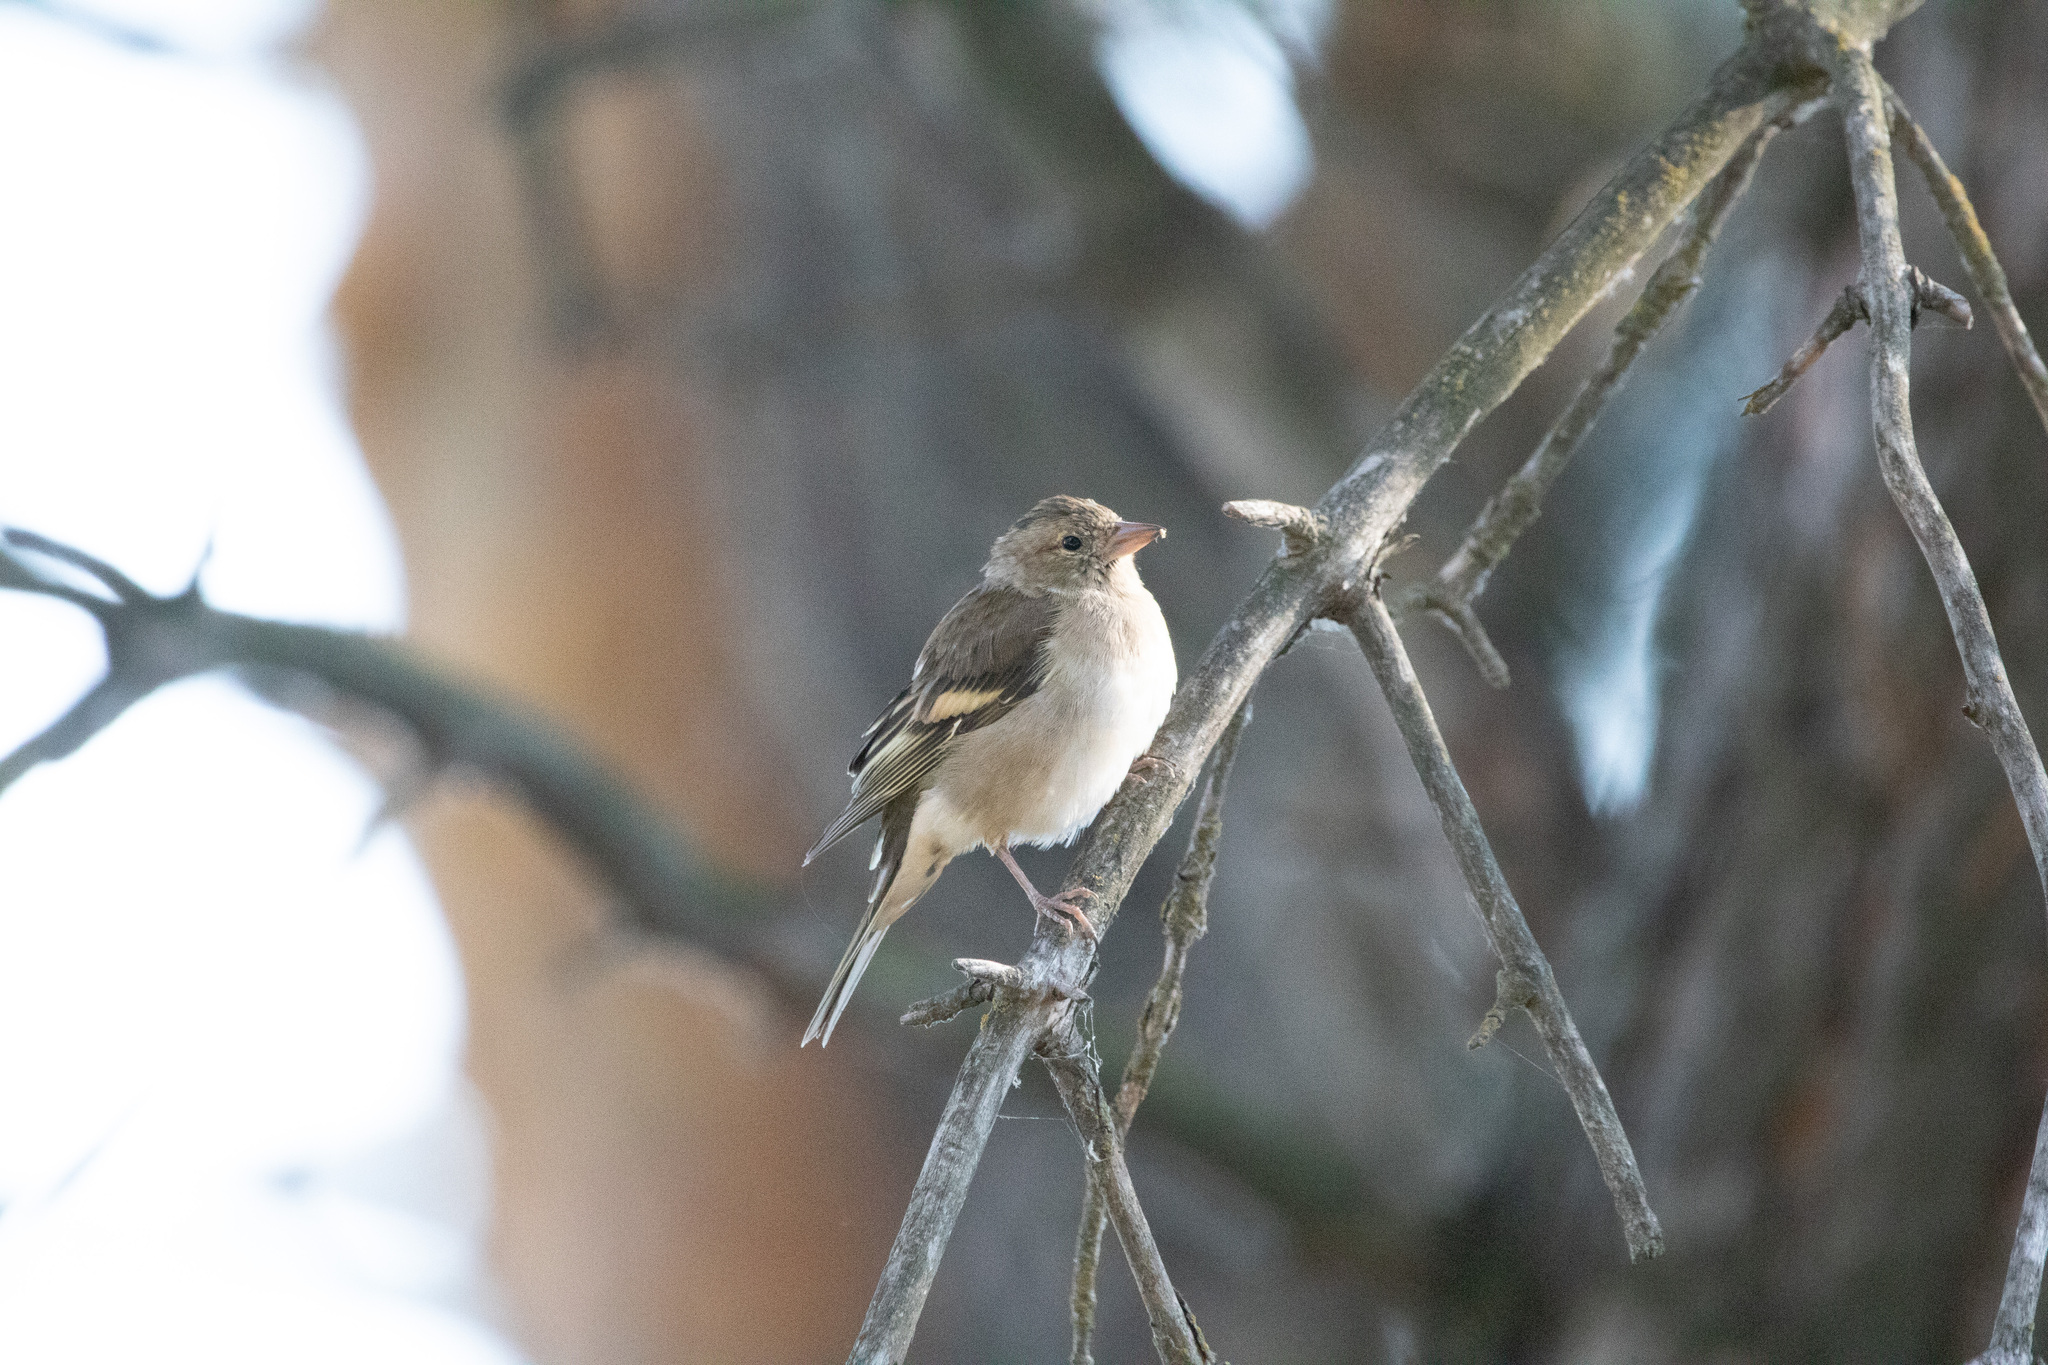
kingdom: Animalia
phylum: Chordata
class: Aves
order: Passeriformes
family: Fringillidae
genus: Fringilla
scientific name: Fringilla coelebs
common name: Common chaffinch
